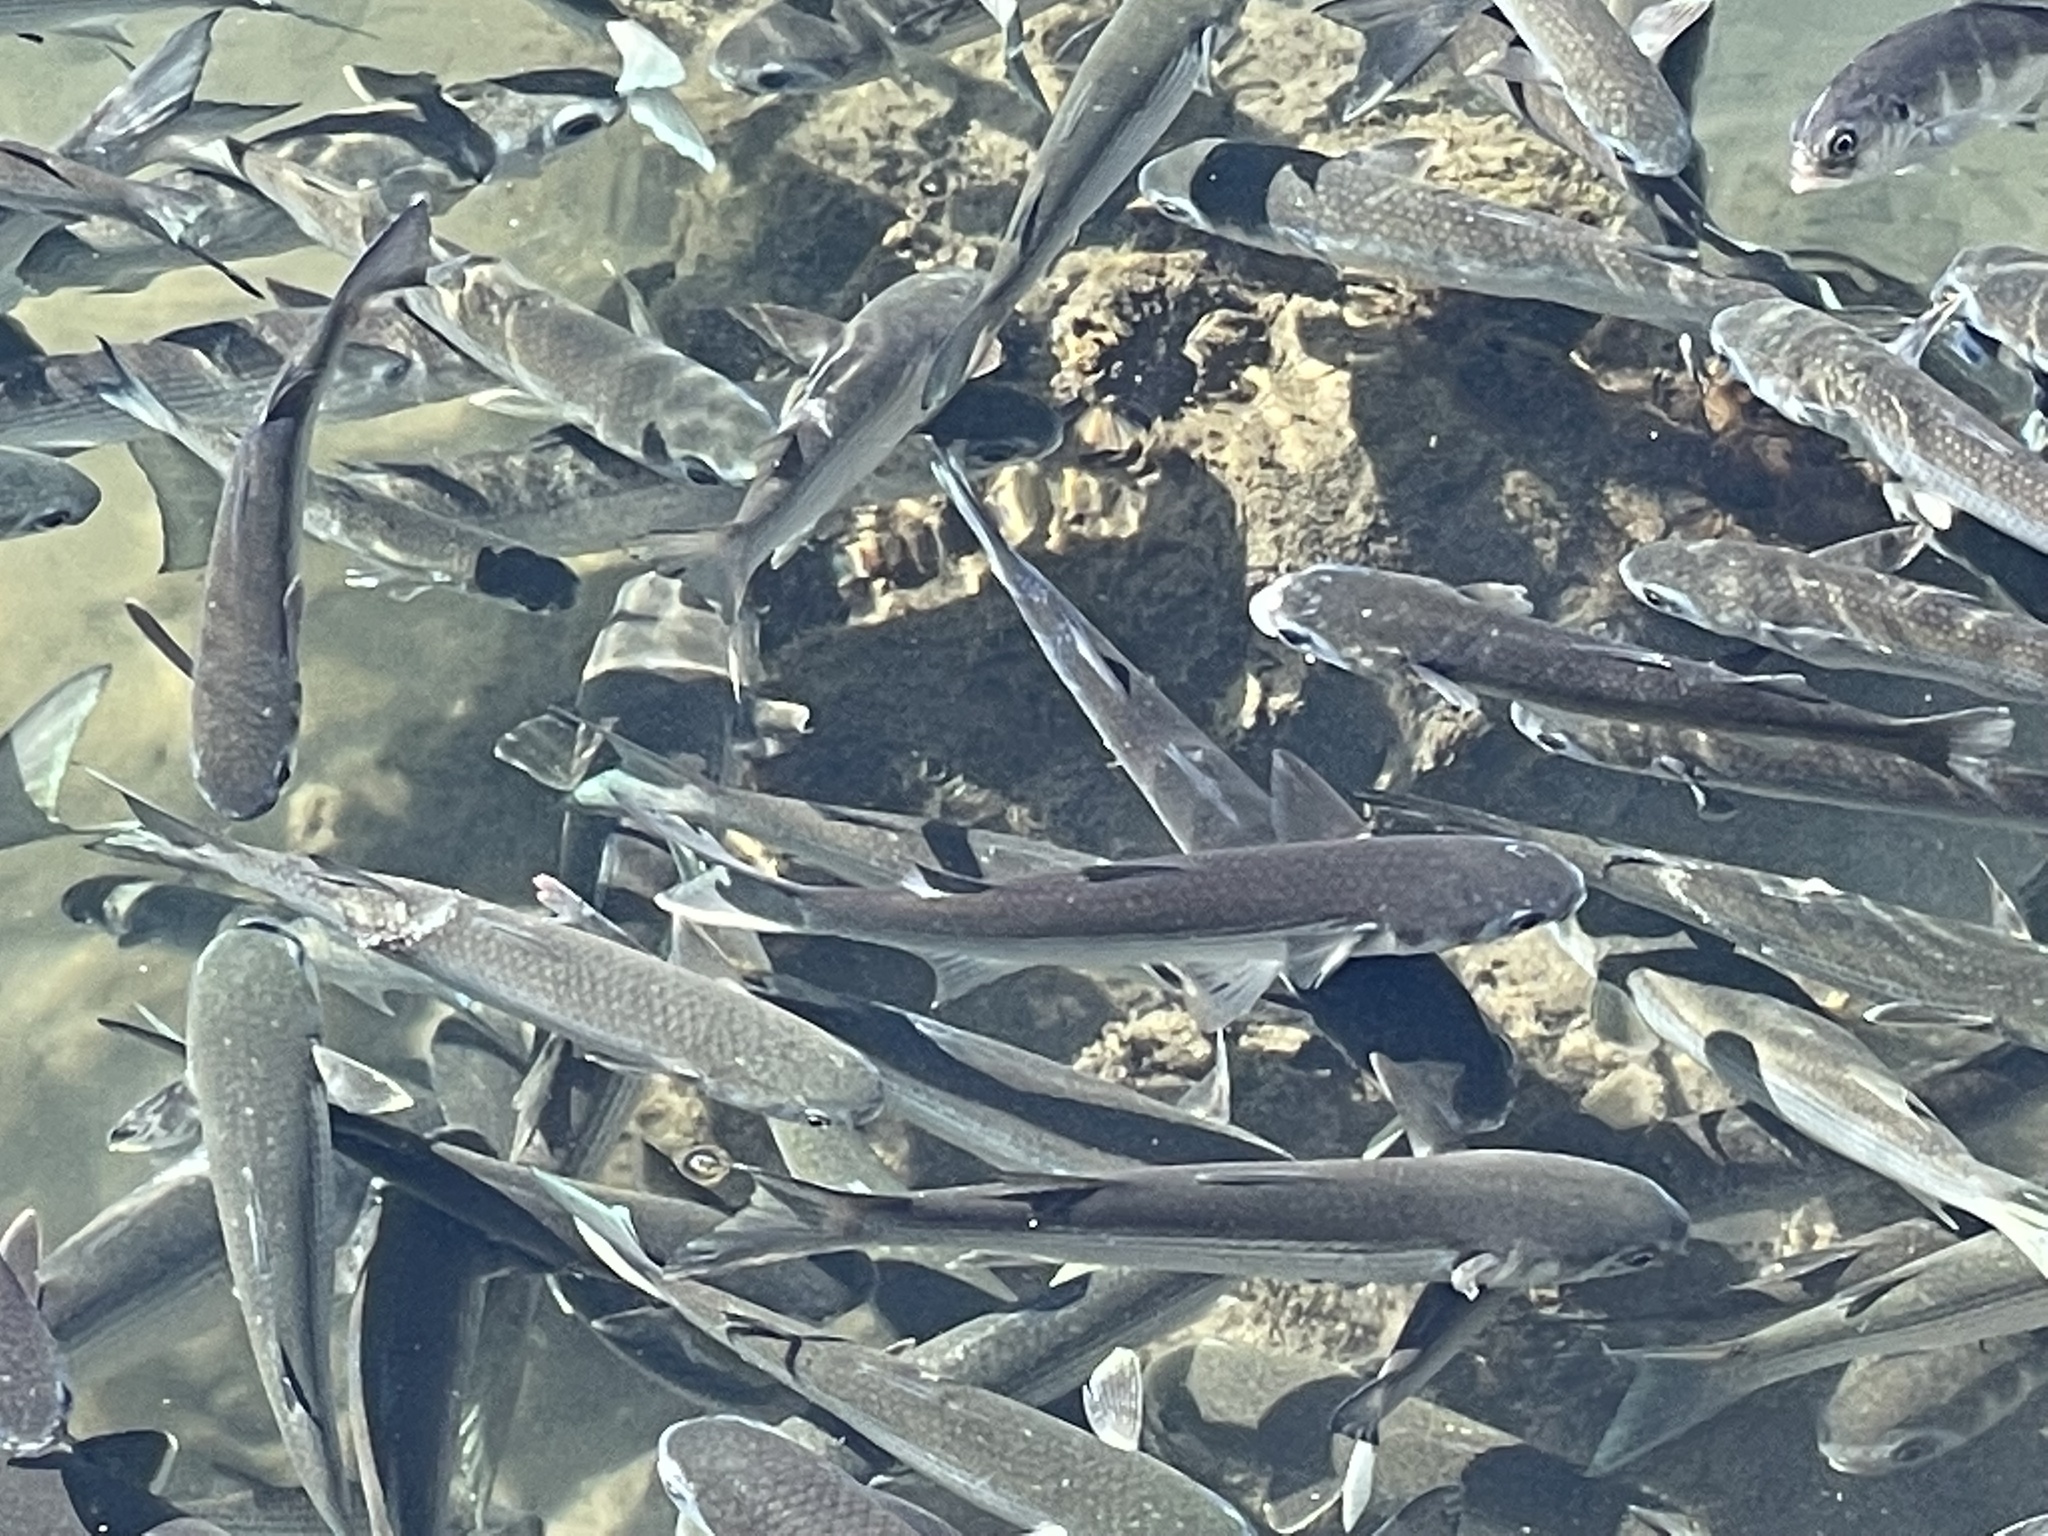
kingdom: Animalia
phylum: Chordata
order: Mugiliformes
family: Mugilidae
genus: Mugil
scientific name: Mugil cephalus
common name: Grey mullet
